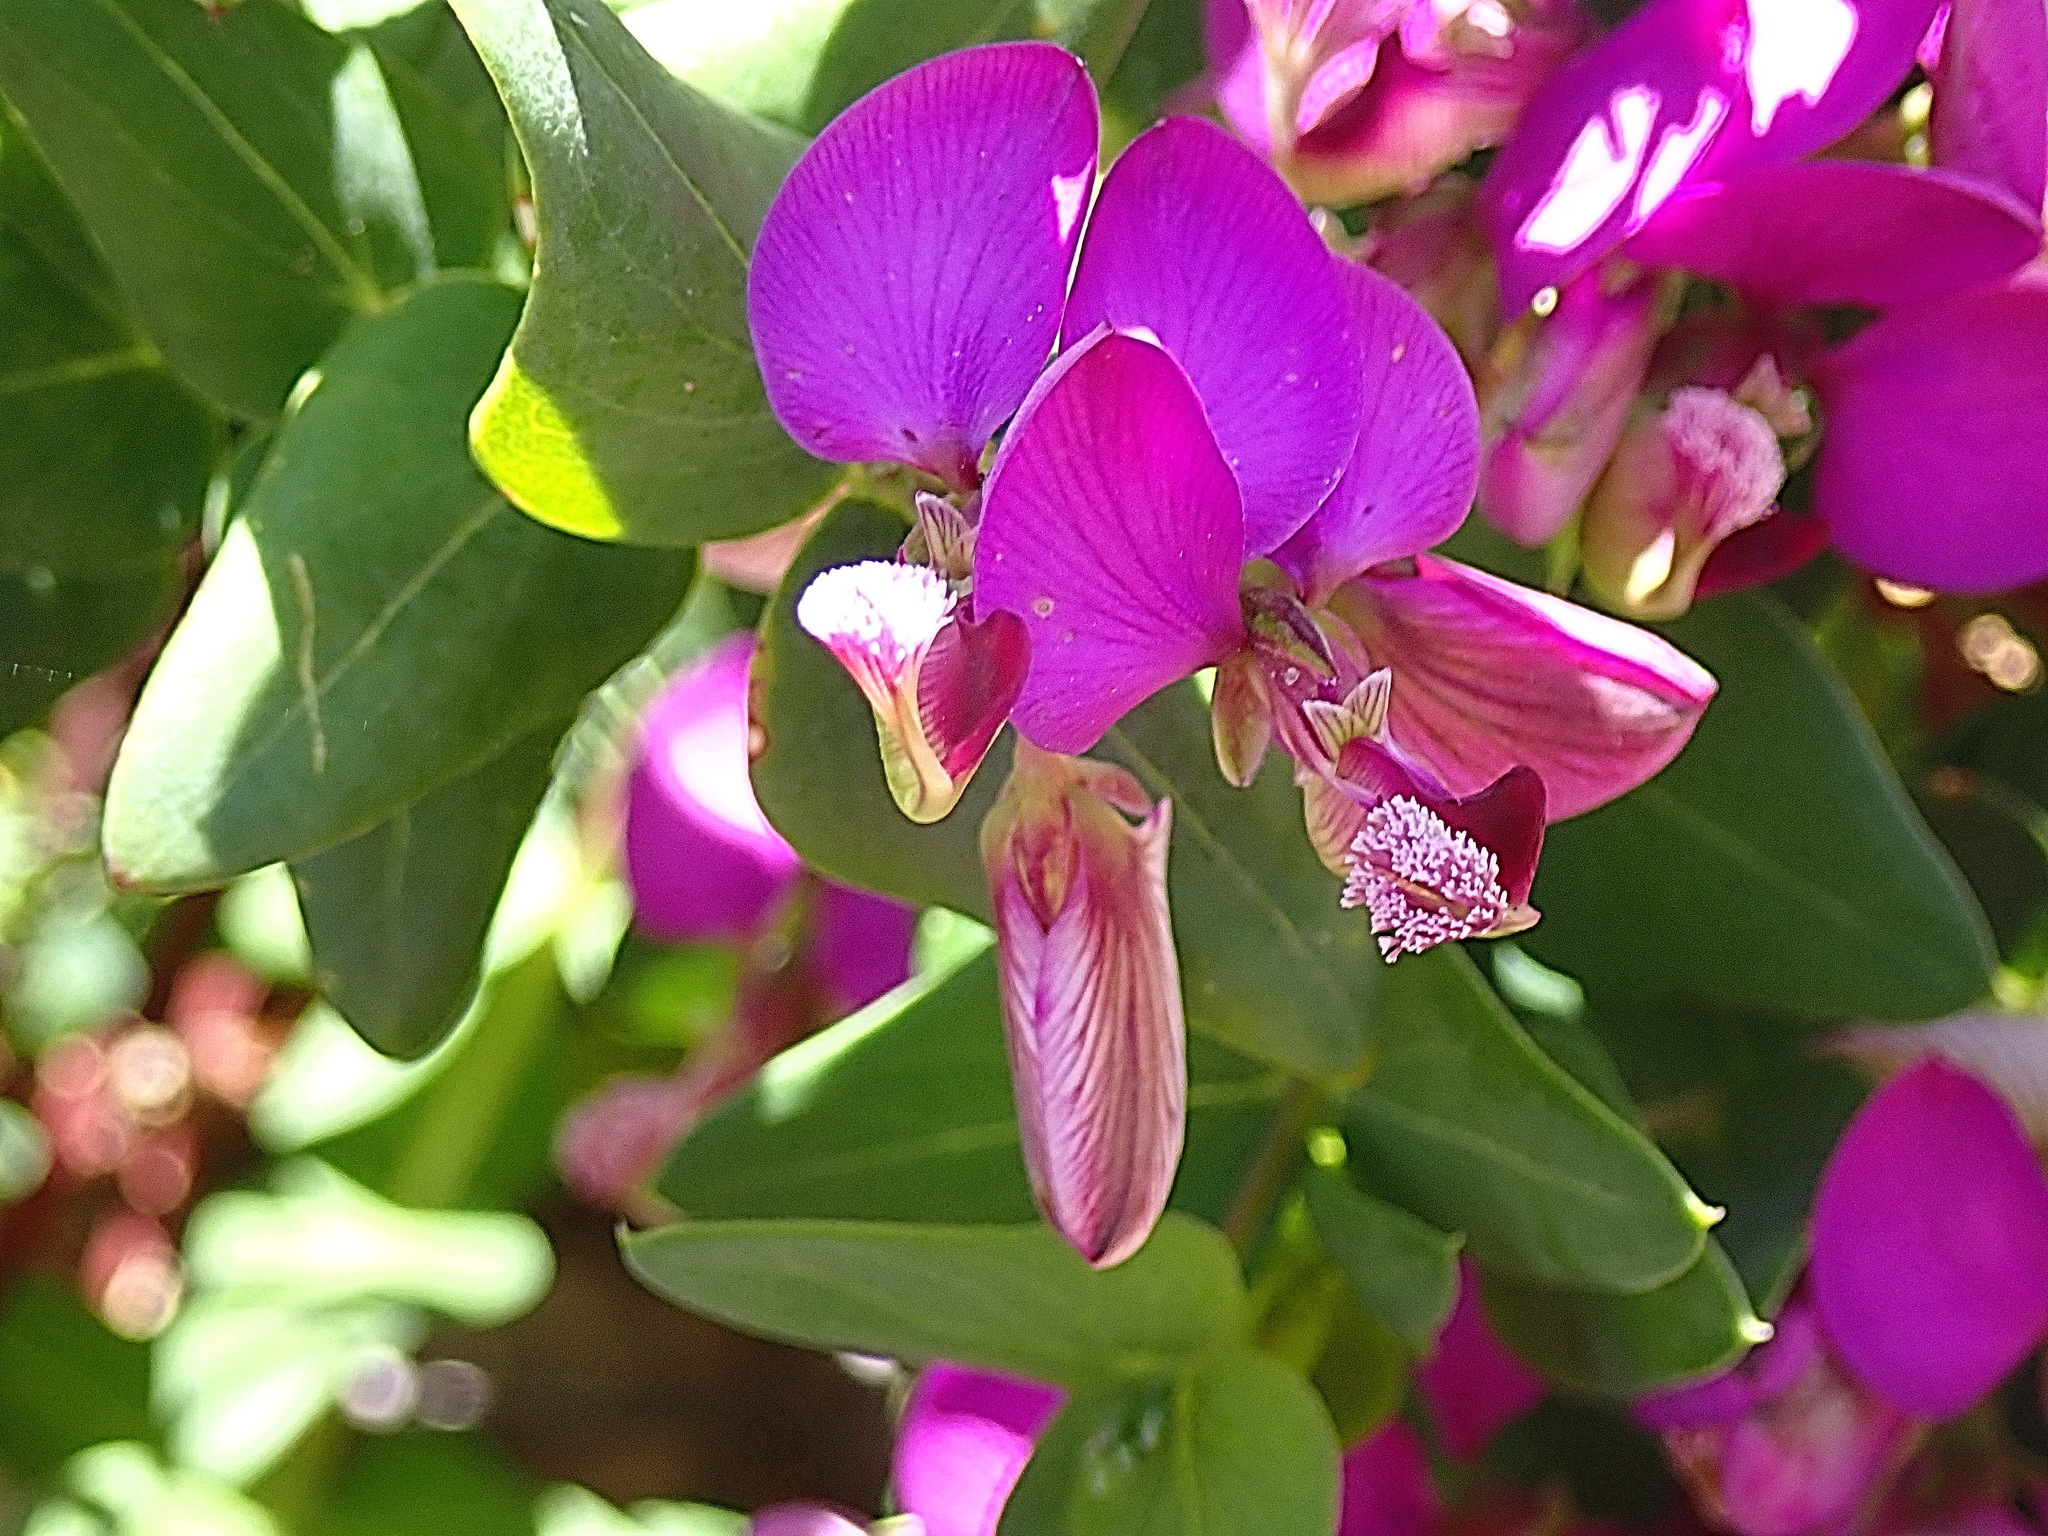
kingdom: Plantae
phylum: Tracheophyta
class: Magnoliopsida
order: Fabales
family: Polygalaceae
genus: Polygala
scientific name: Polygala fruticosa
